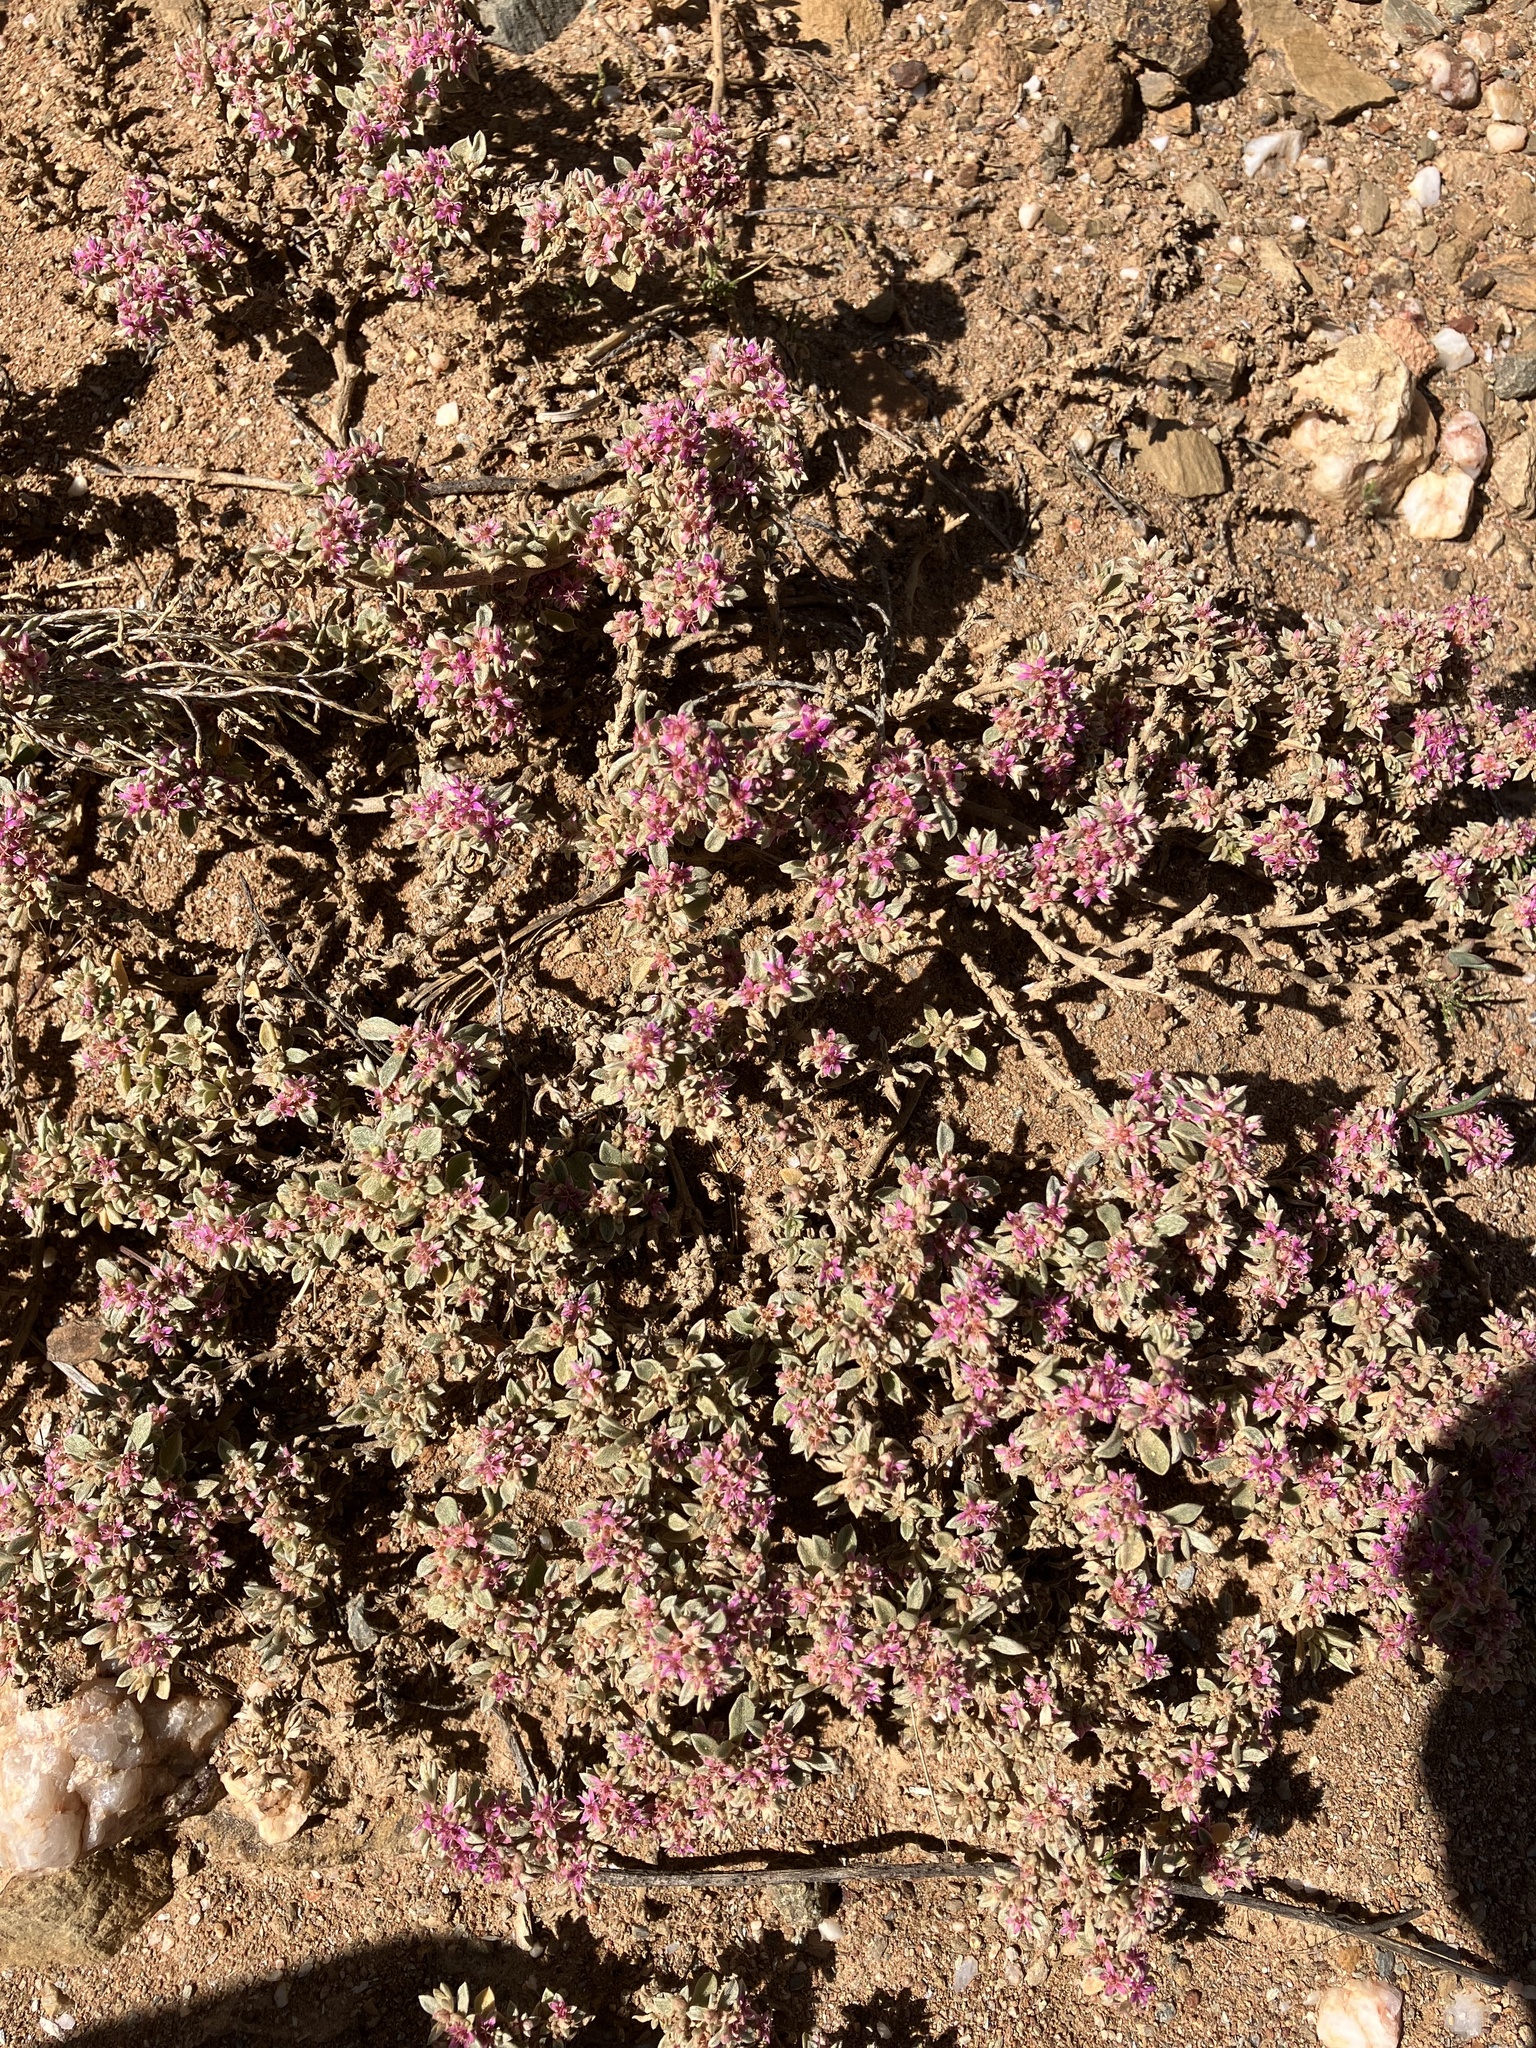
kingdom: Plantae
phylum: Tracheophyta
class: Magnoliopsida
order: Caryophyllales
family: Aizoaceae
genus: Aizoon
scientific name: Aizoon portulacaceum
